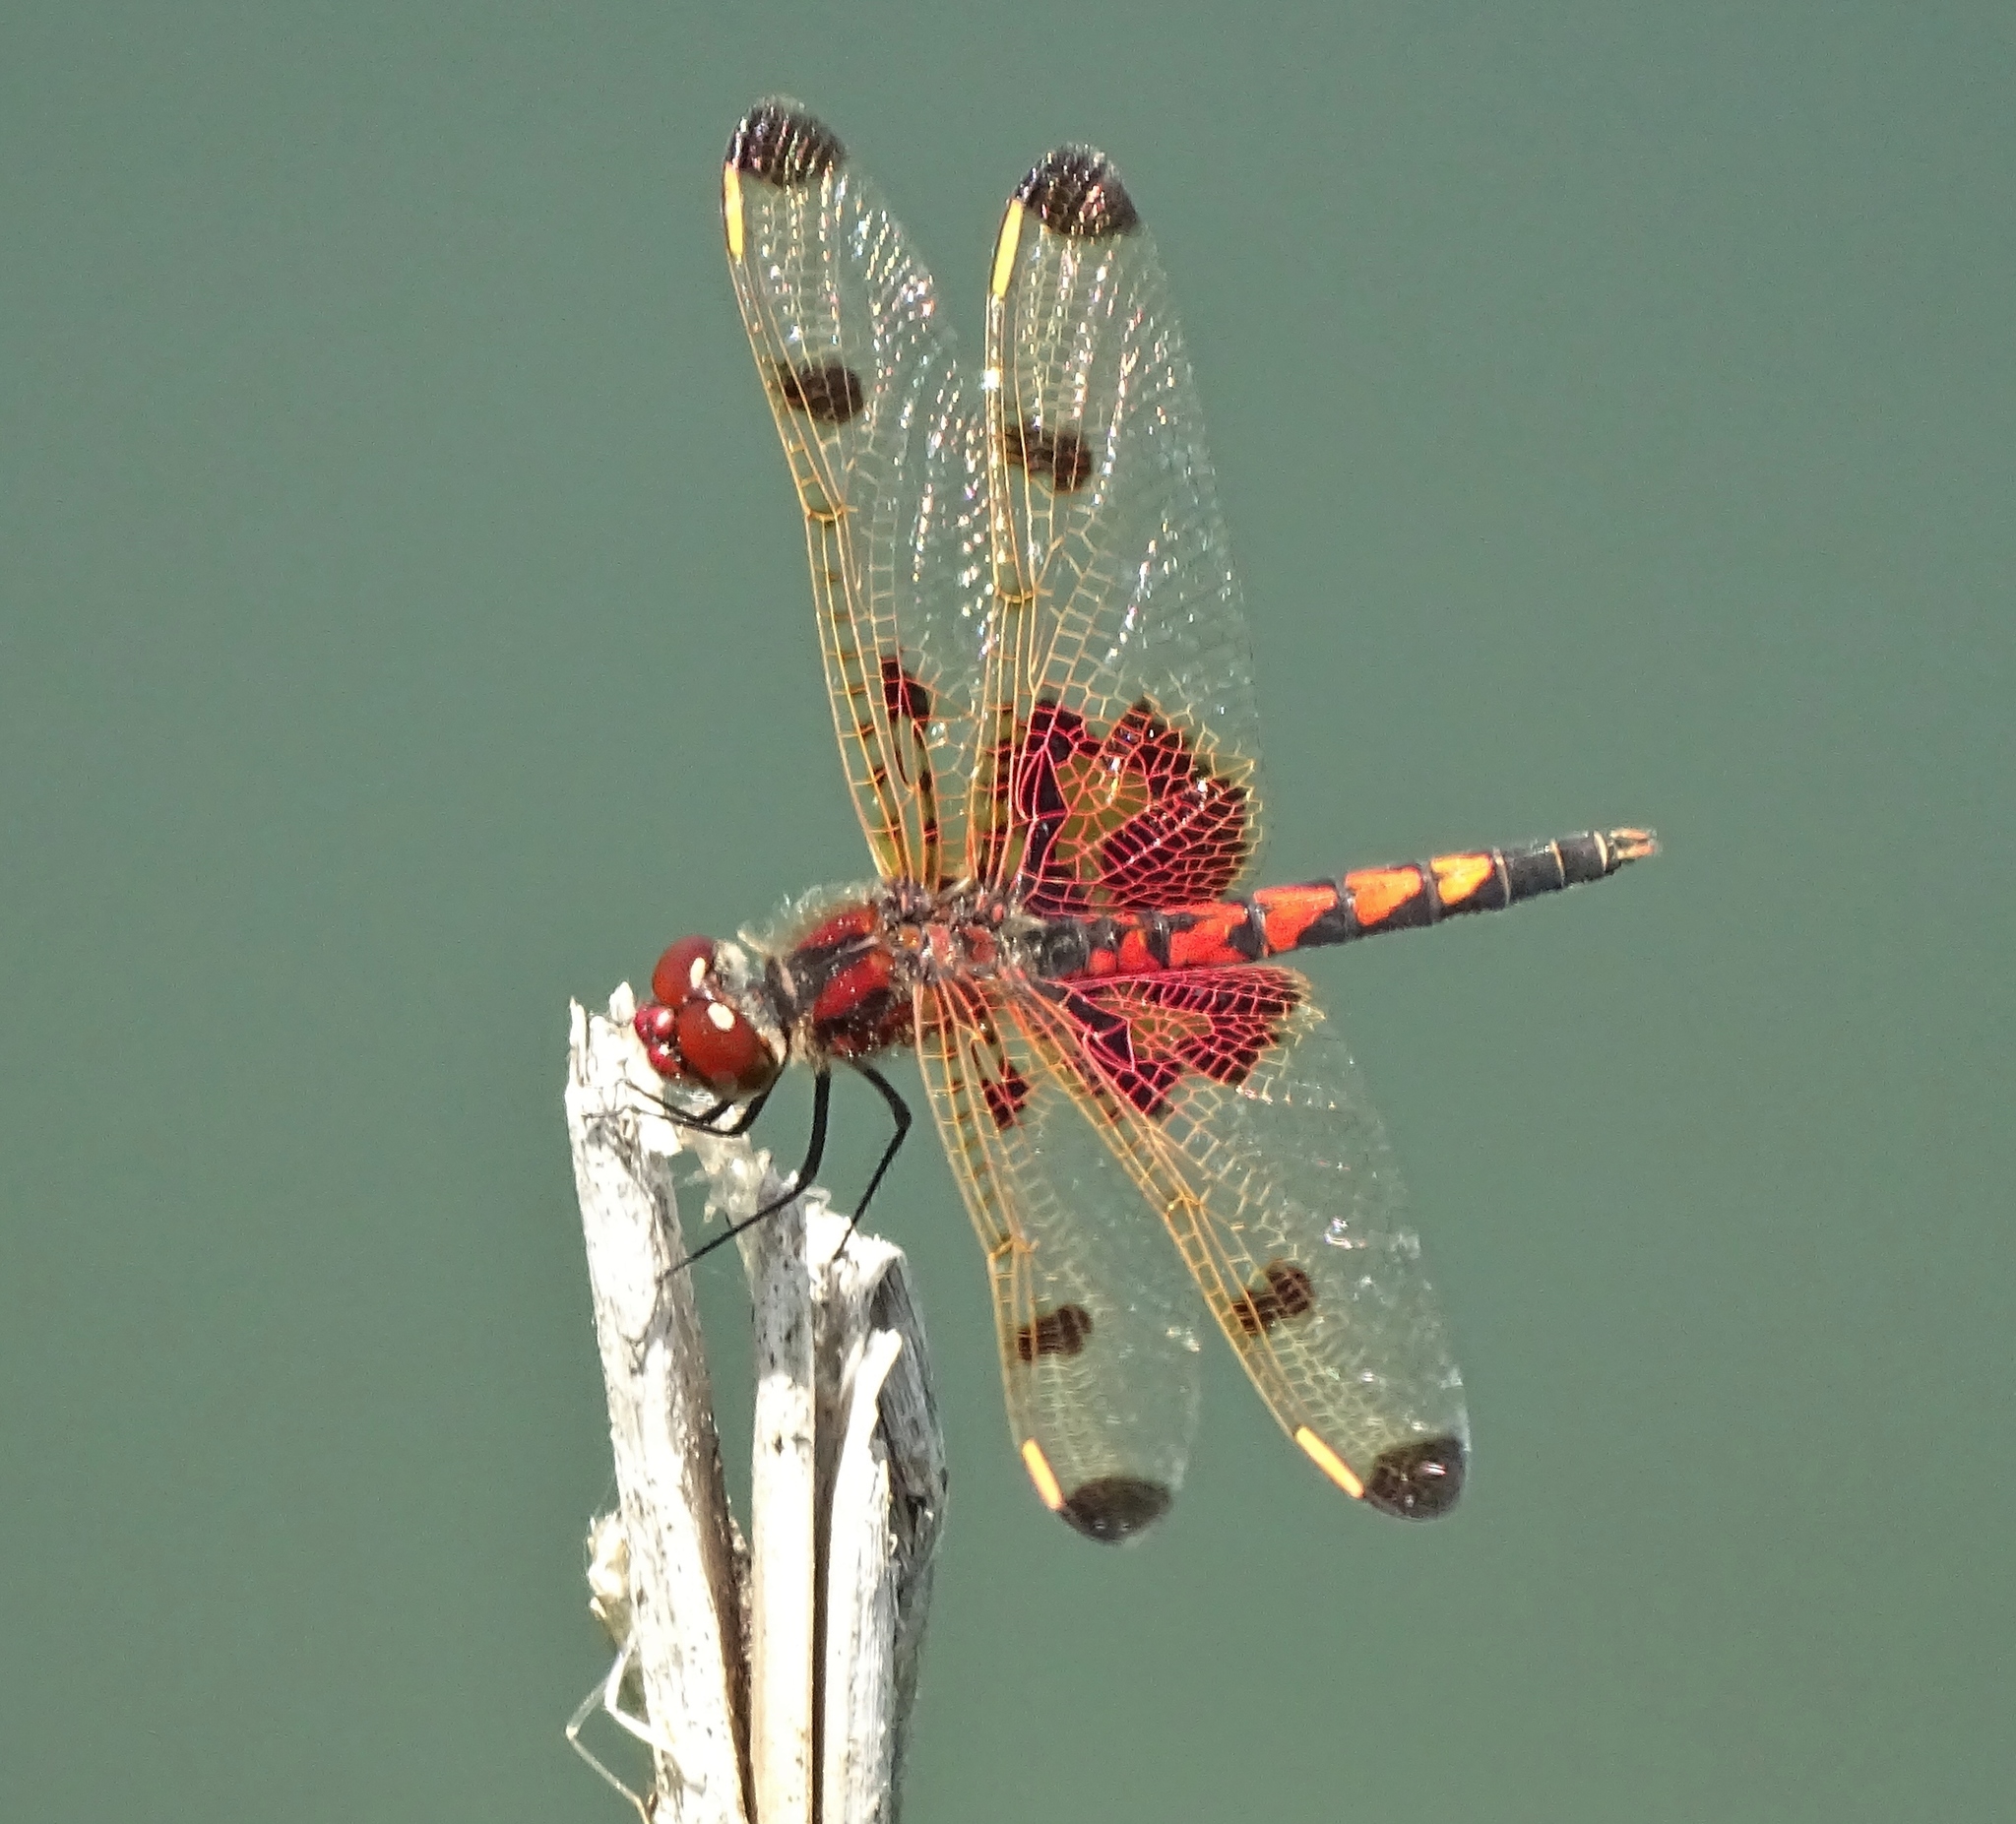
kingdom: Animalia
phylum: Arthropoda
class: Insecta
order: Odonata
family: Libellulidae
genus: Celithemis
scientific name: Celithemis elisa
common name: Calico pennant
